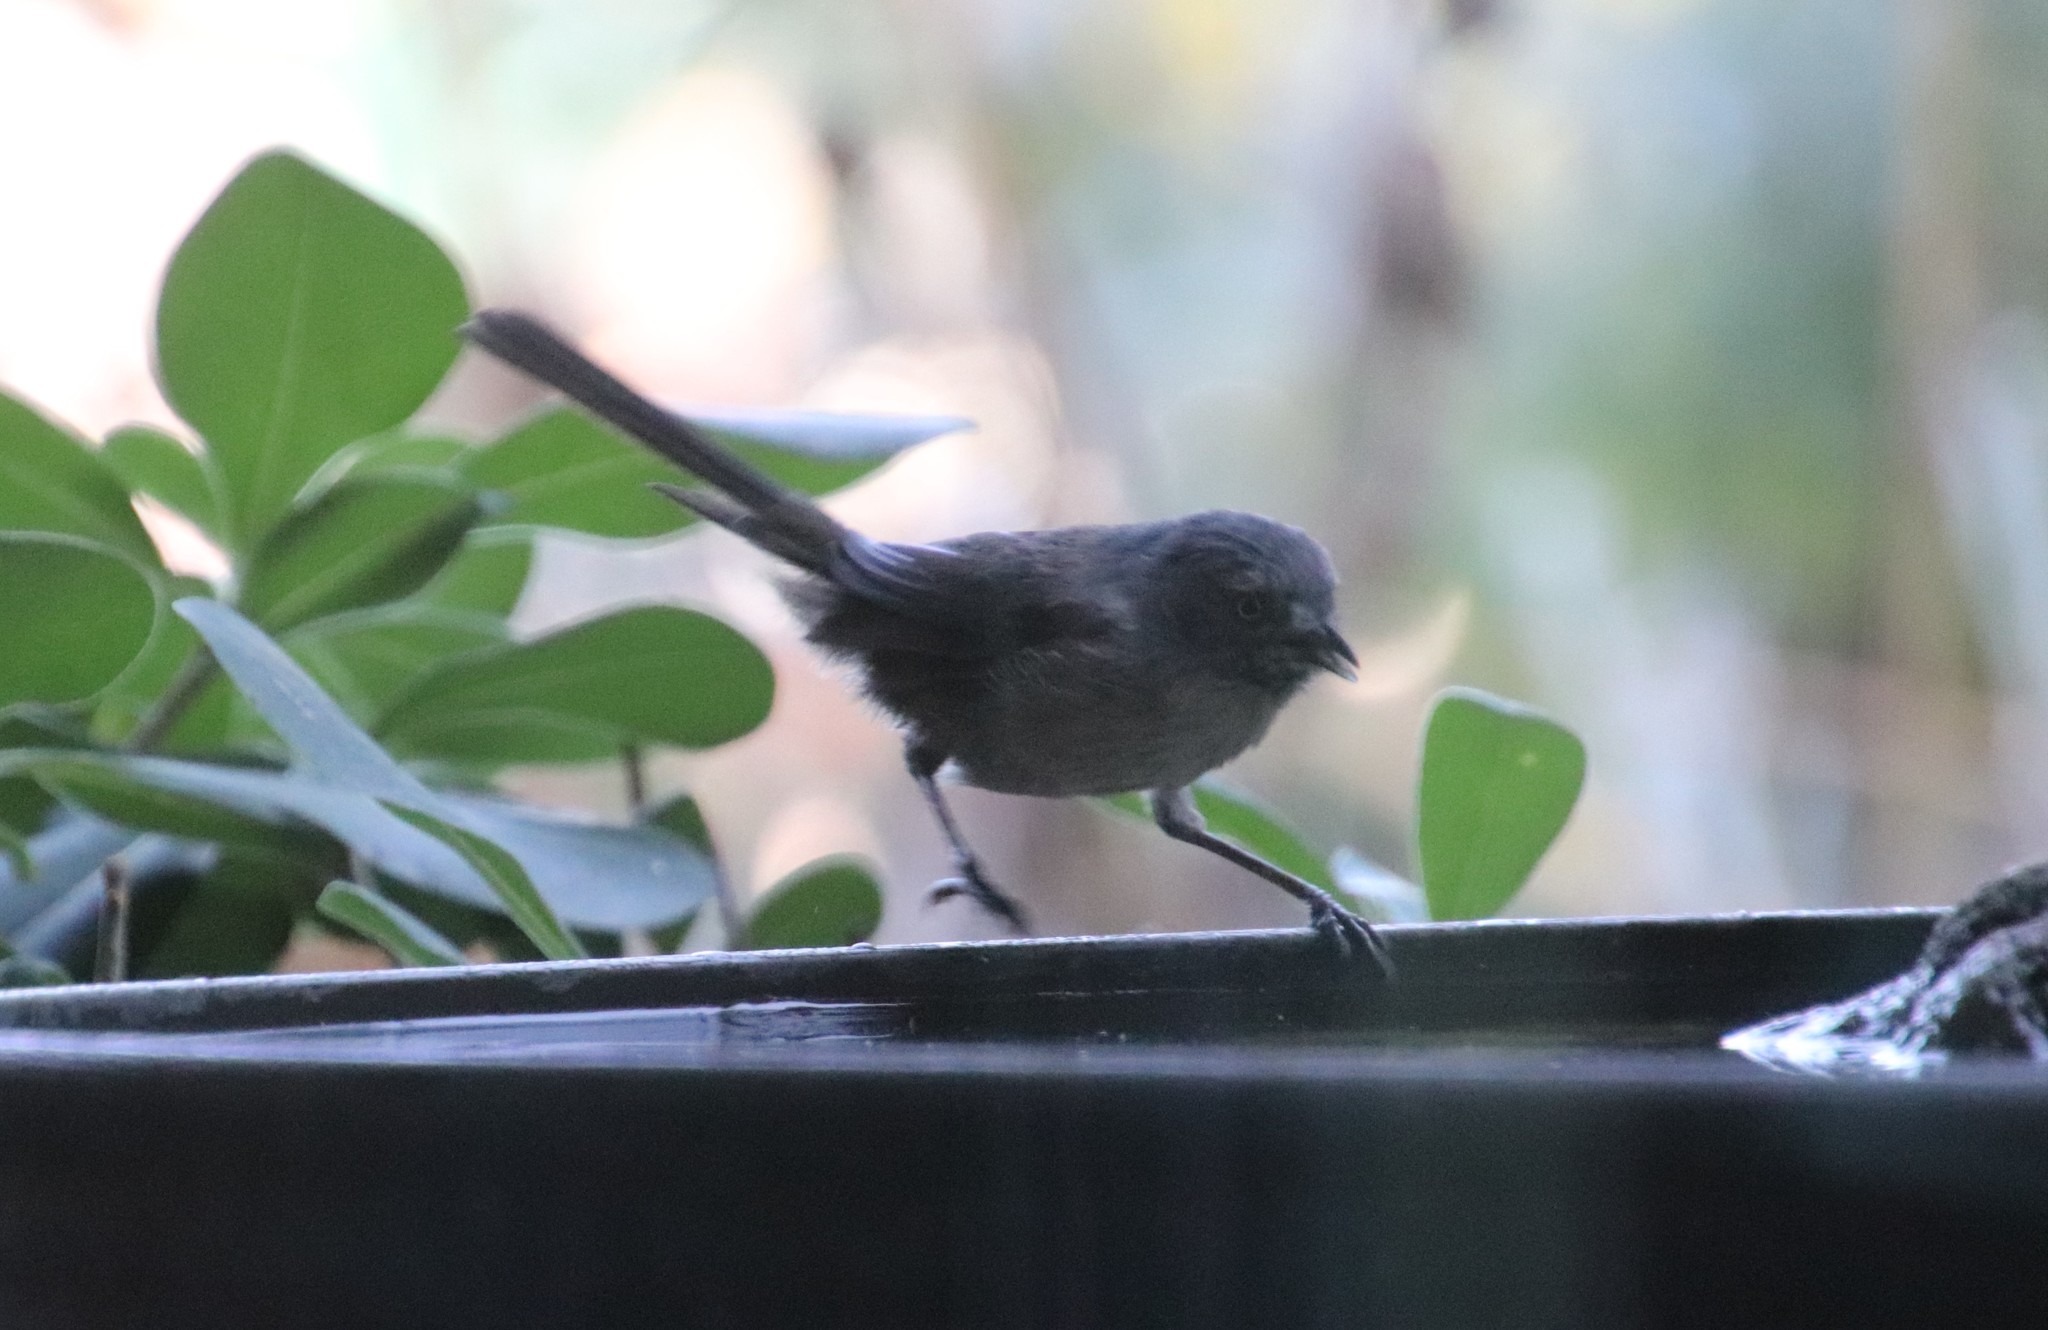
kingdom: Animalia
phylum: Chordata
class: Aves
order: Passeriformes
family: Sylviidae
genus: Chamaea
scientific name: Chamaea fasciata
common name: Wrentit
